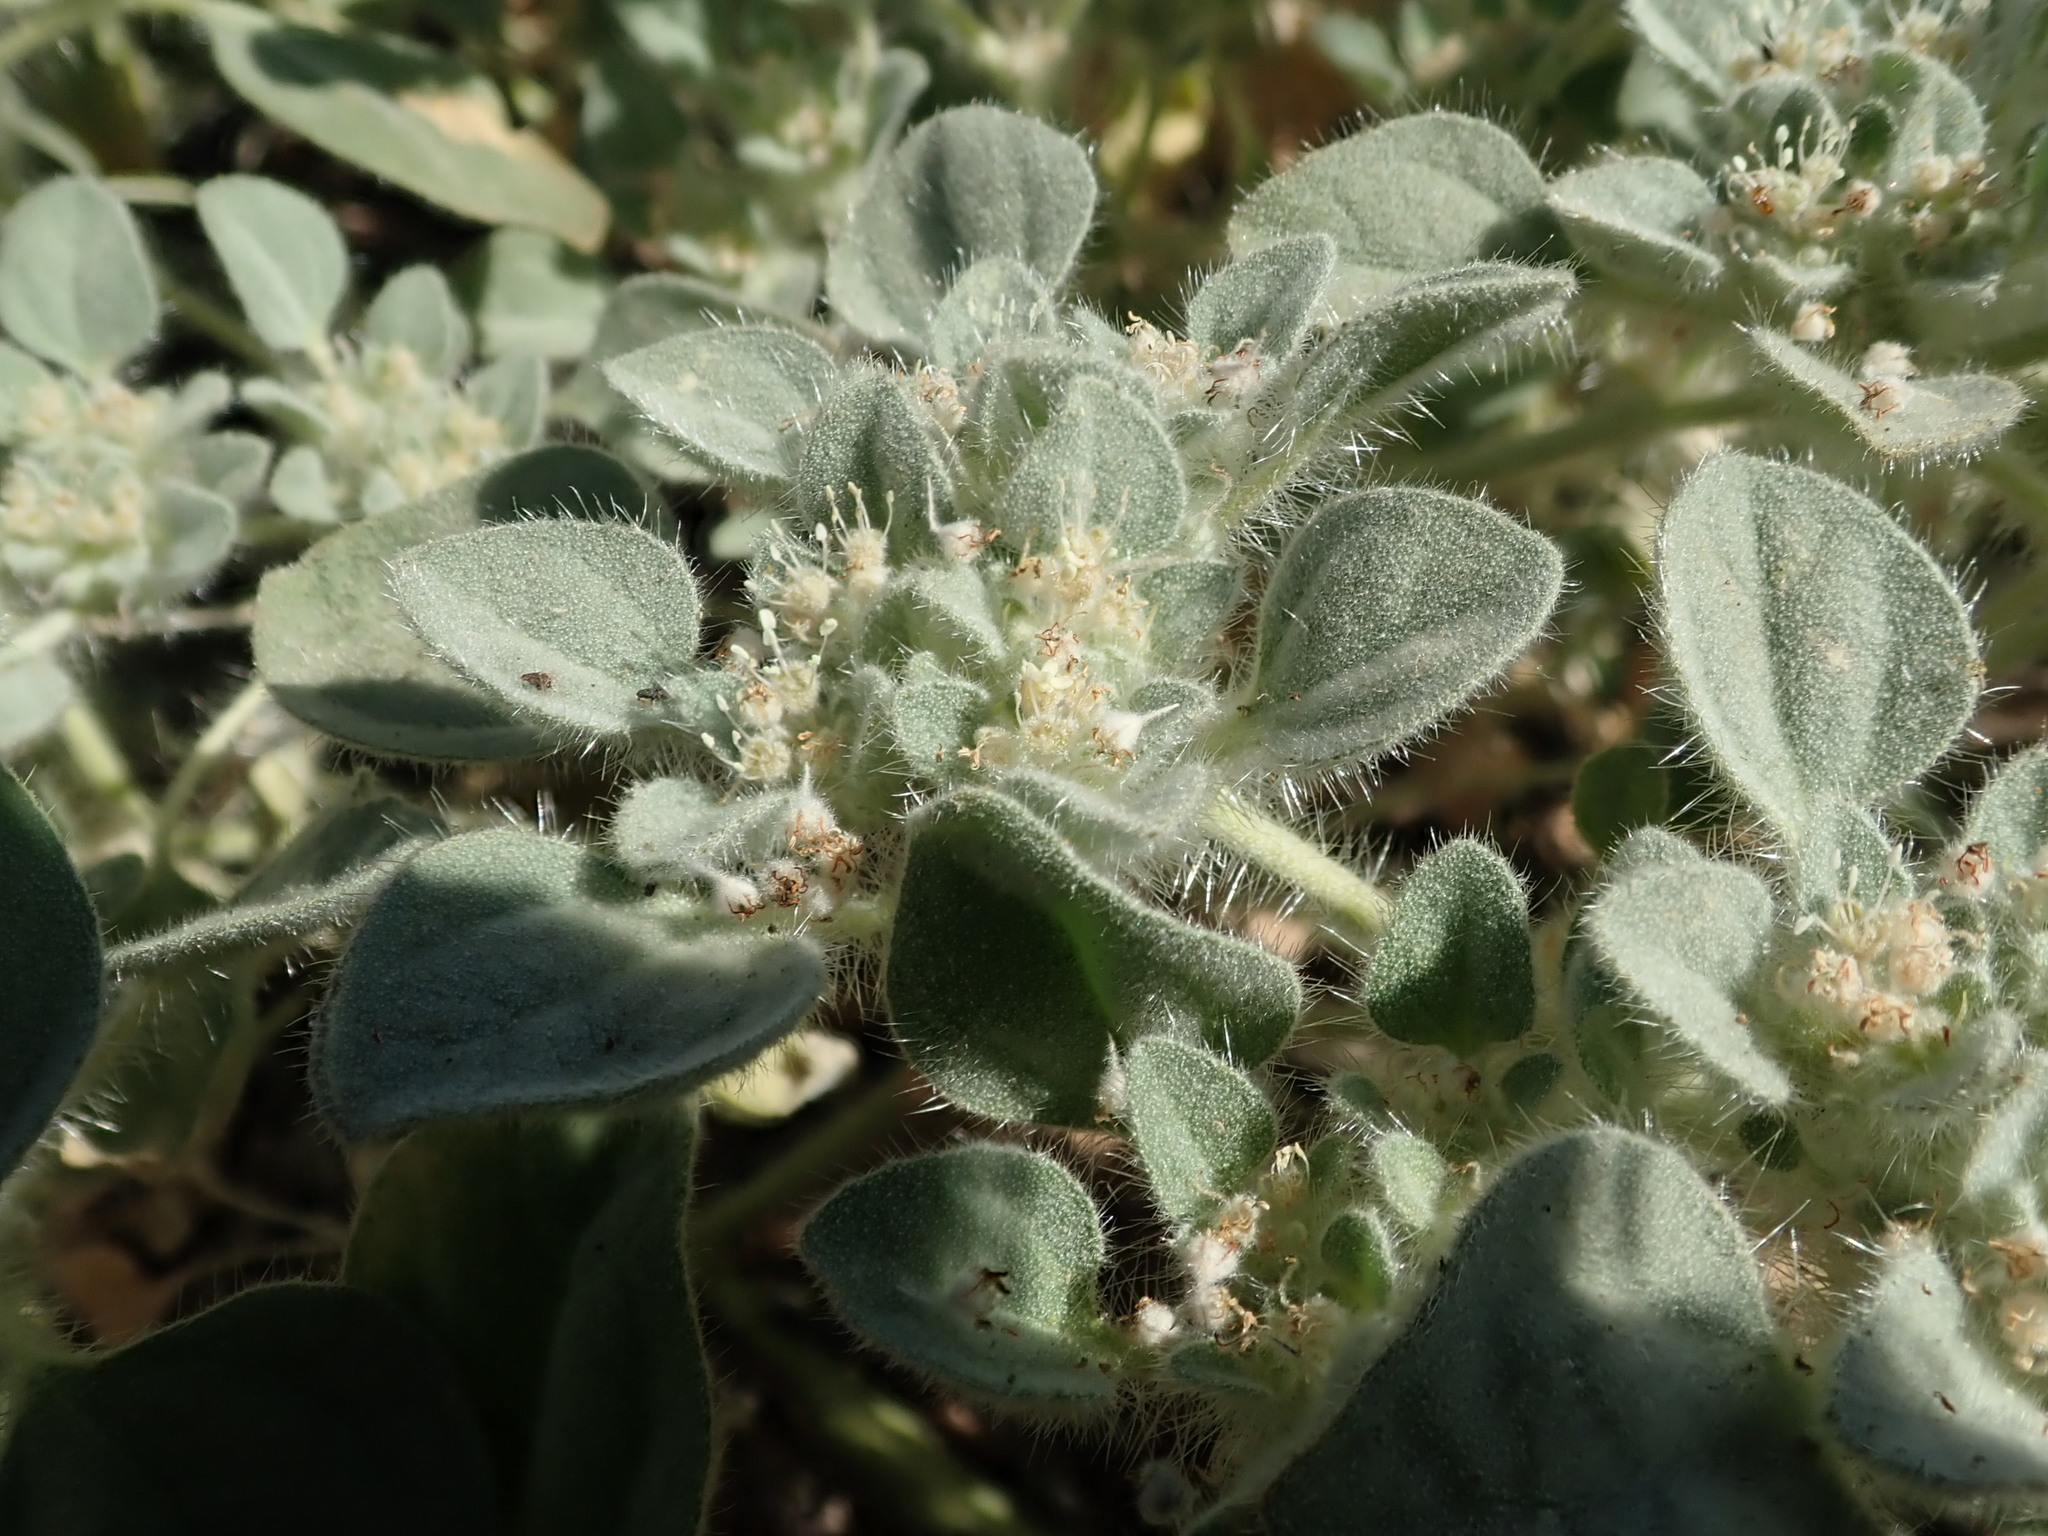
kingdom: Plantae
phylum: Tracheophyta
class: Magnoliopsida
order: Malpighiales
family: Euphorbiaceae
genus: Croton
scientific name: Croton setiger
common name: Dove weed
